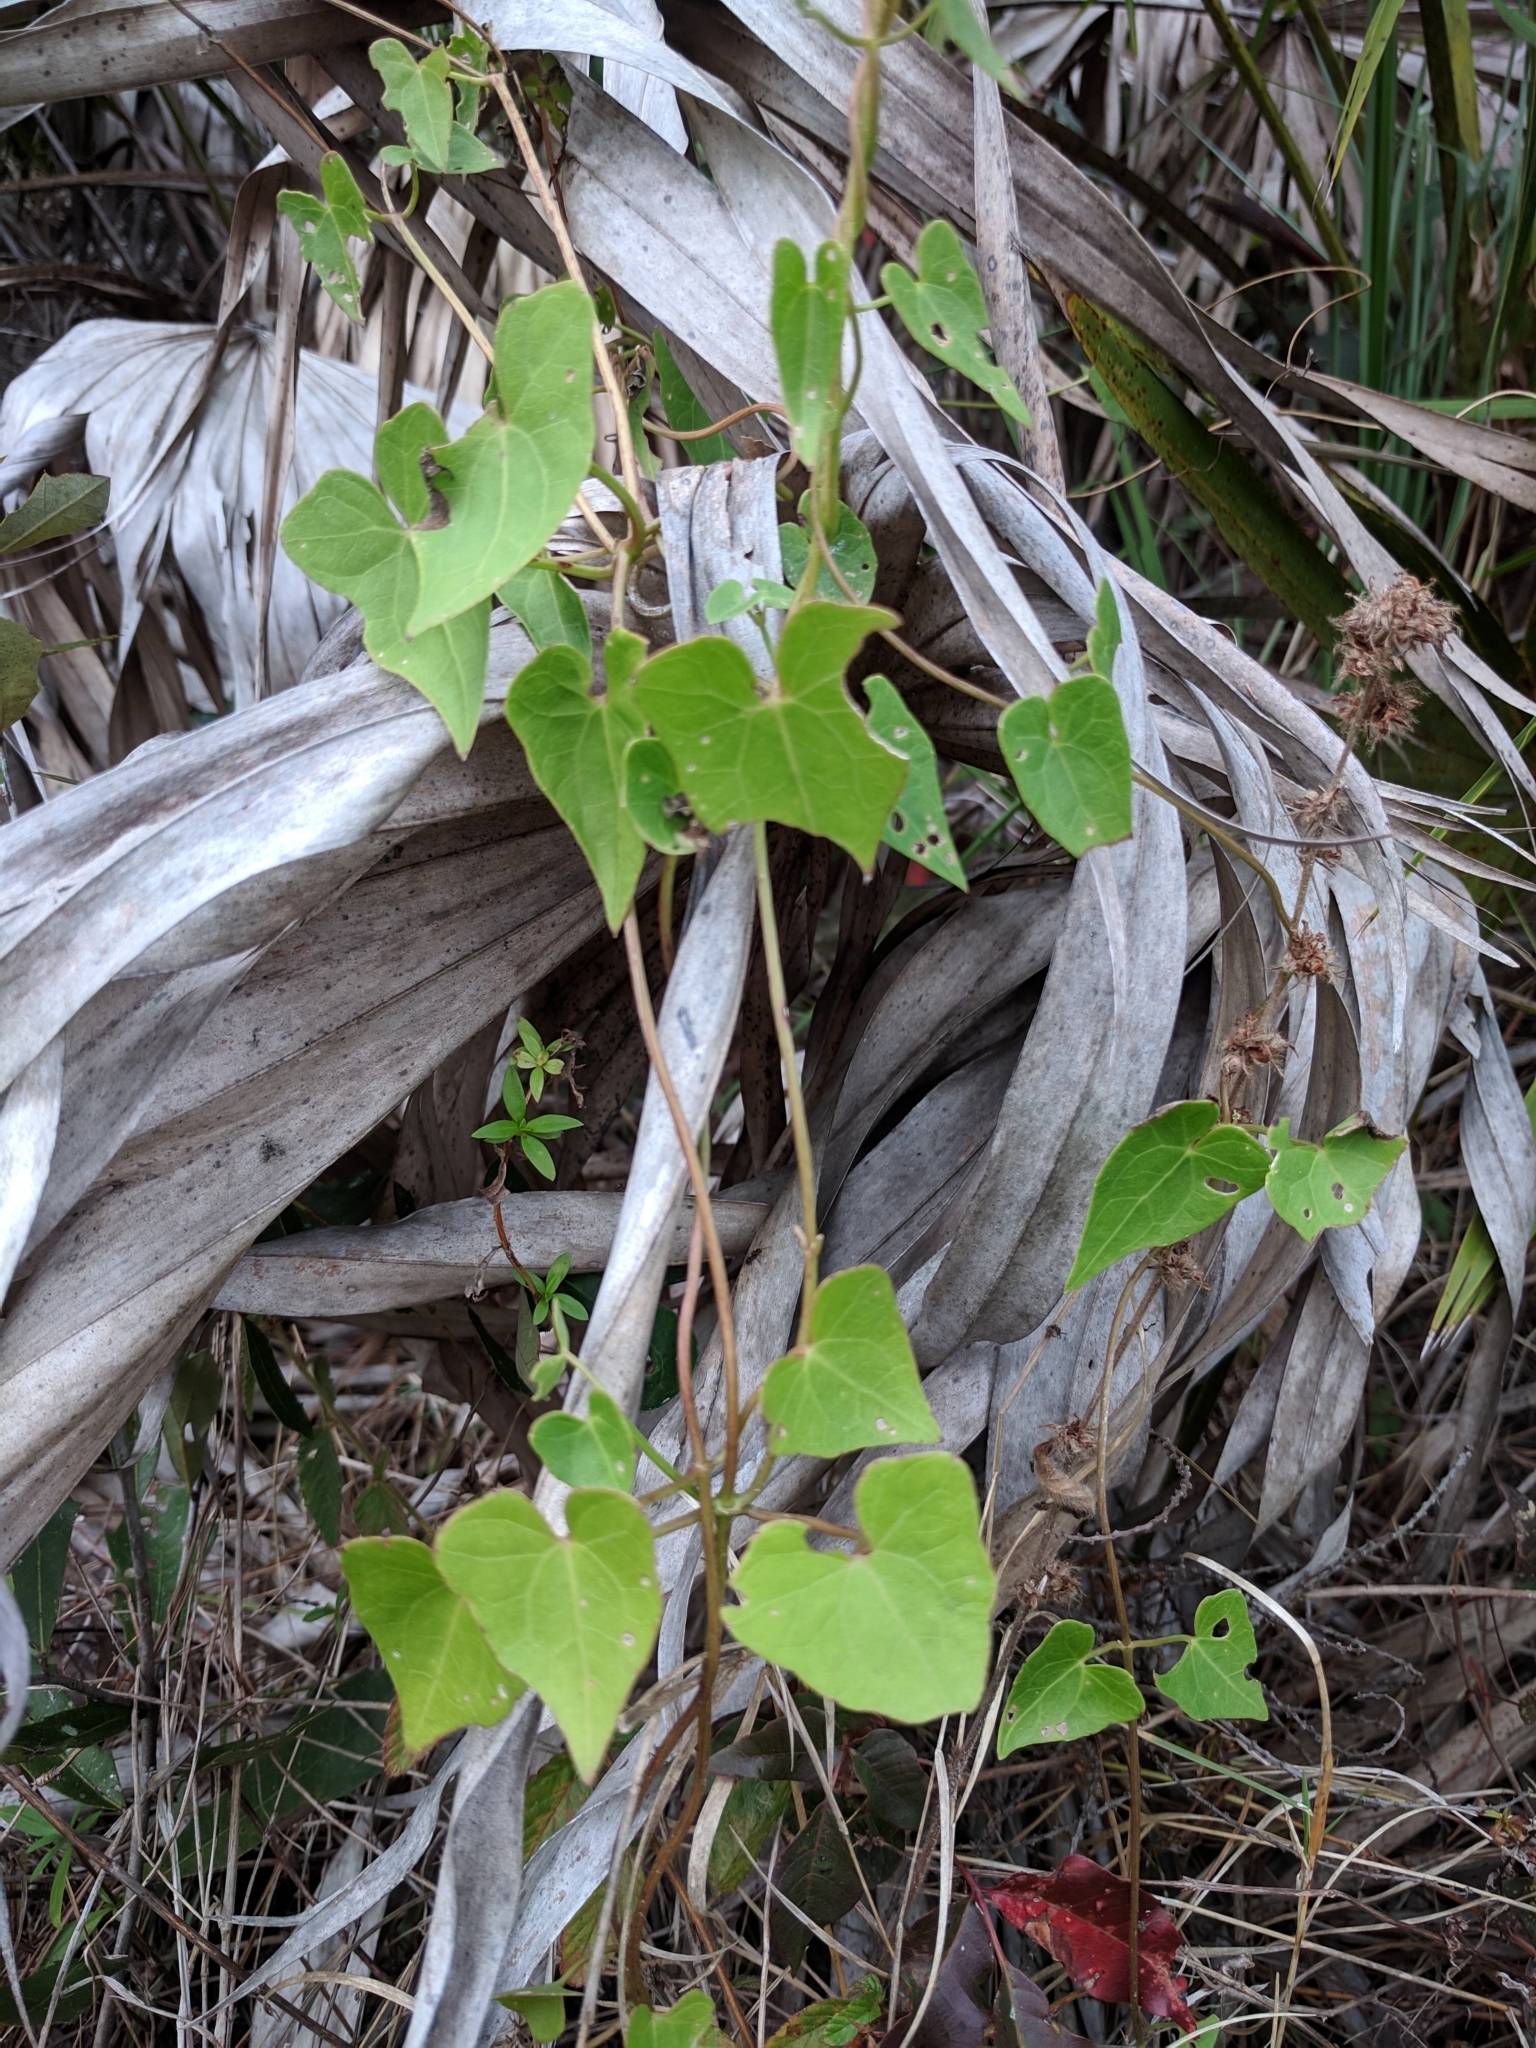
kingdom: Plantae
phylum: Tracheophyta
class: Magnoliopsida
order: Asterales
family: Asteraceae
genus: Mikania
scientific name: Mikania scandens
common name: Climbing hempvine
